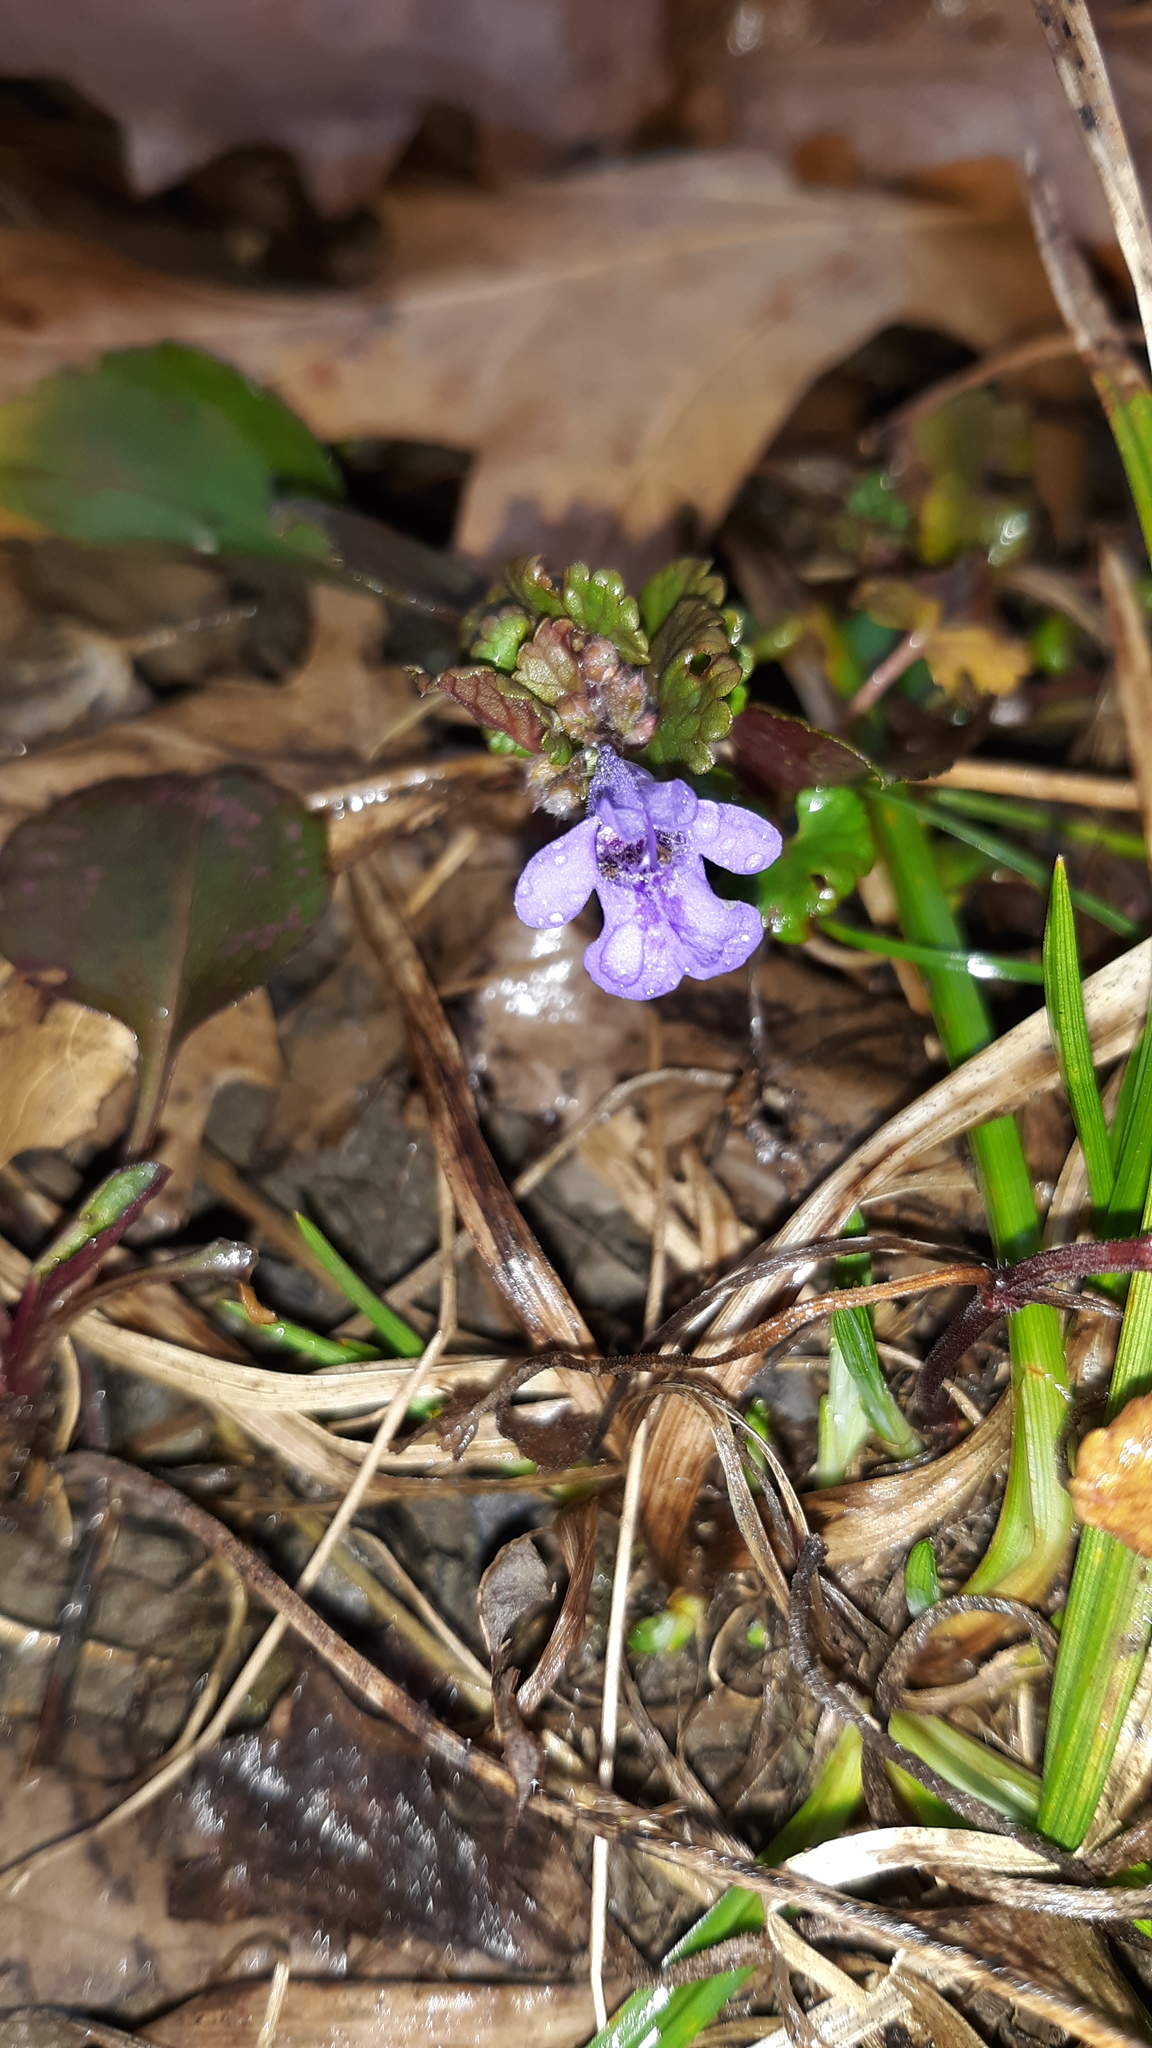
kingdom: Plantae
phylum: Tracheophyta
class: Magnoliopsida
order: Lamiales
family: Lamiaceae
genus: Glechoma
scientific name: Glechoma hederacea
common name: Ground ivy
